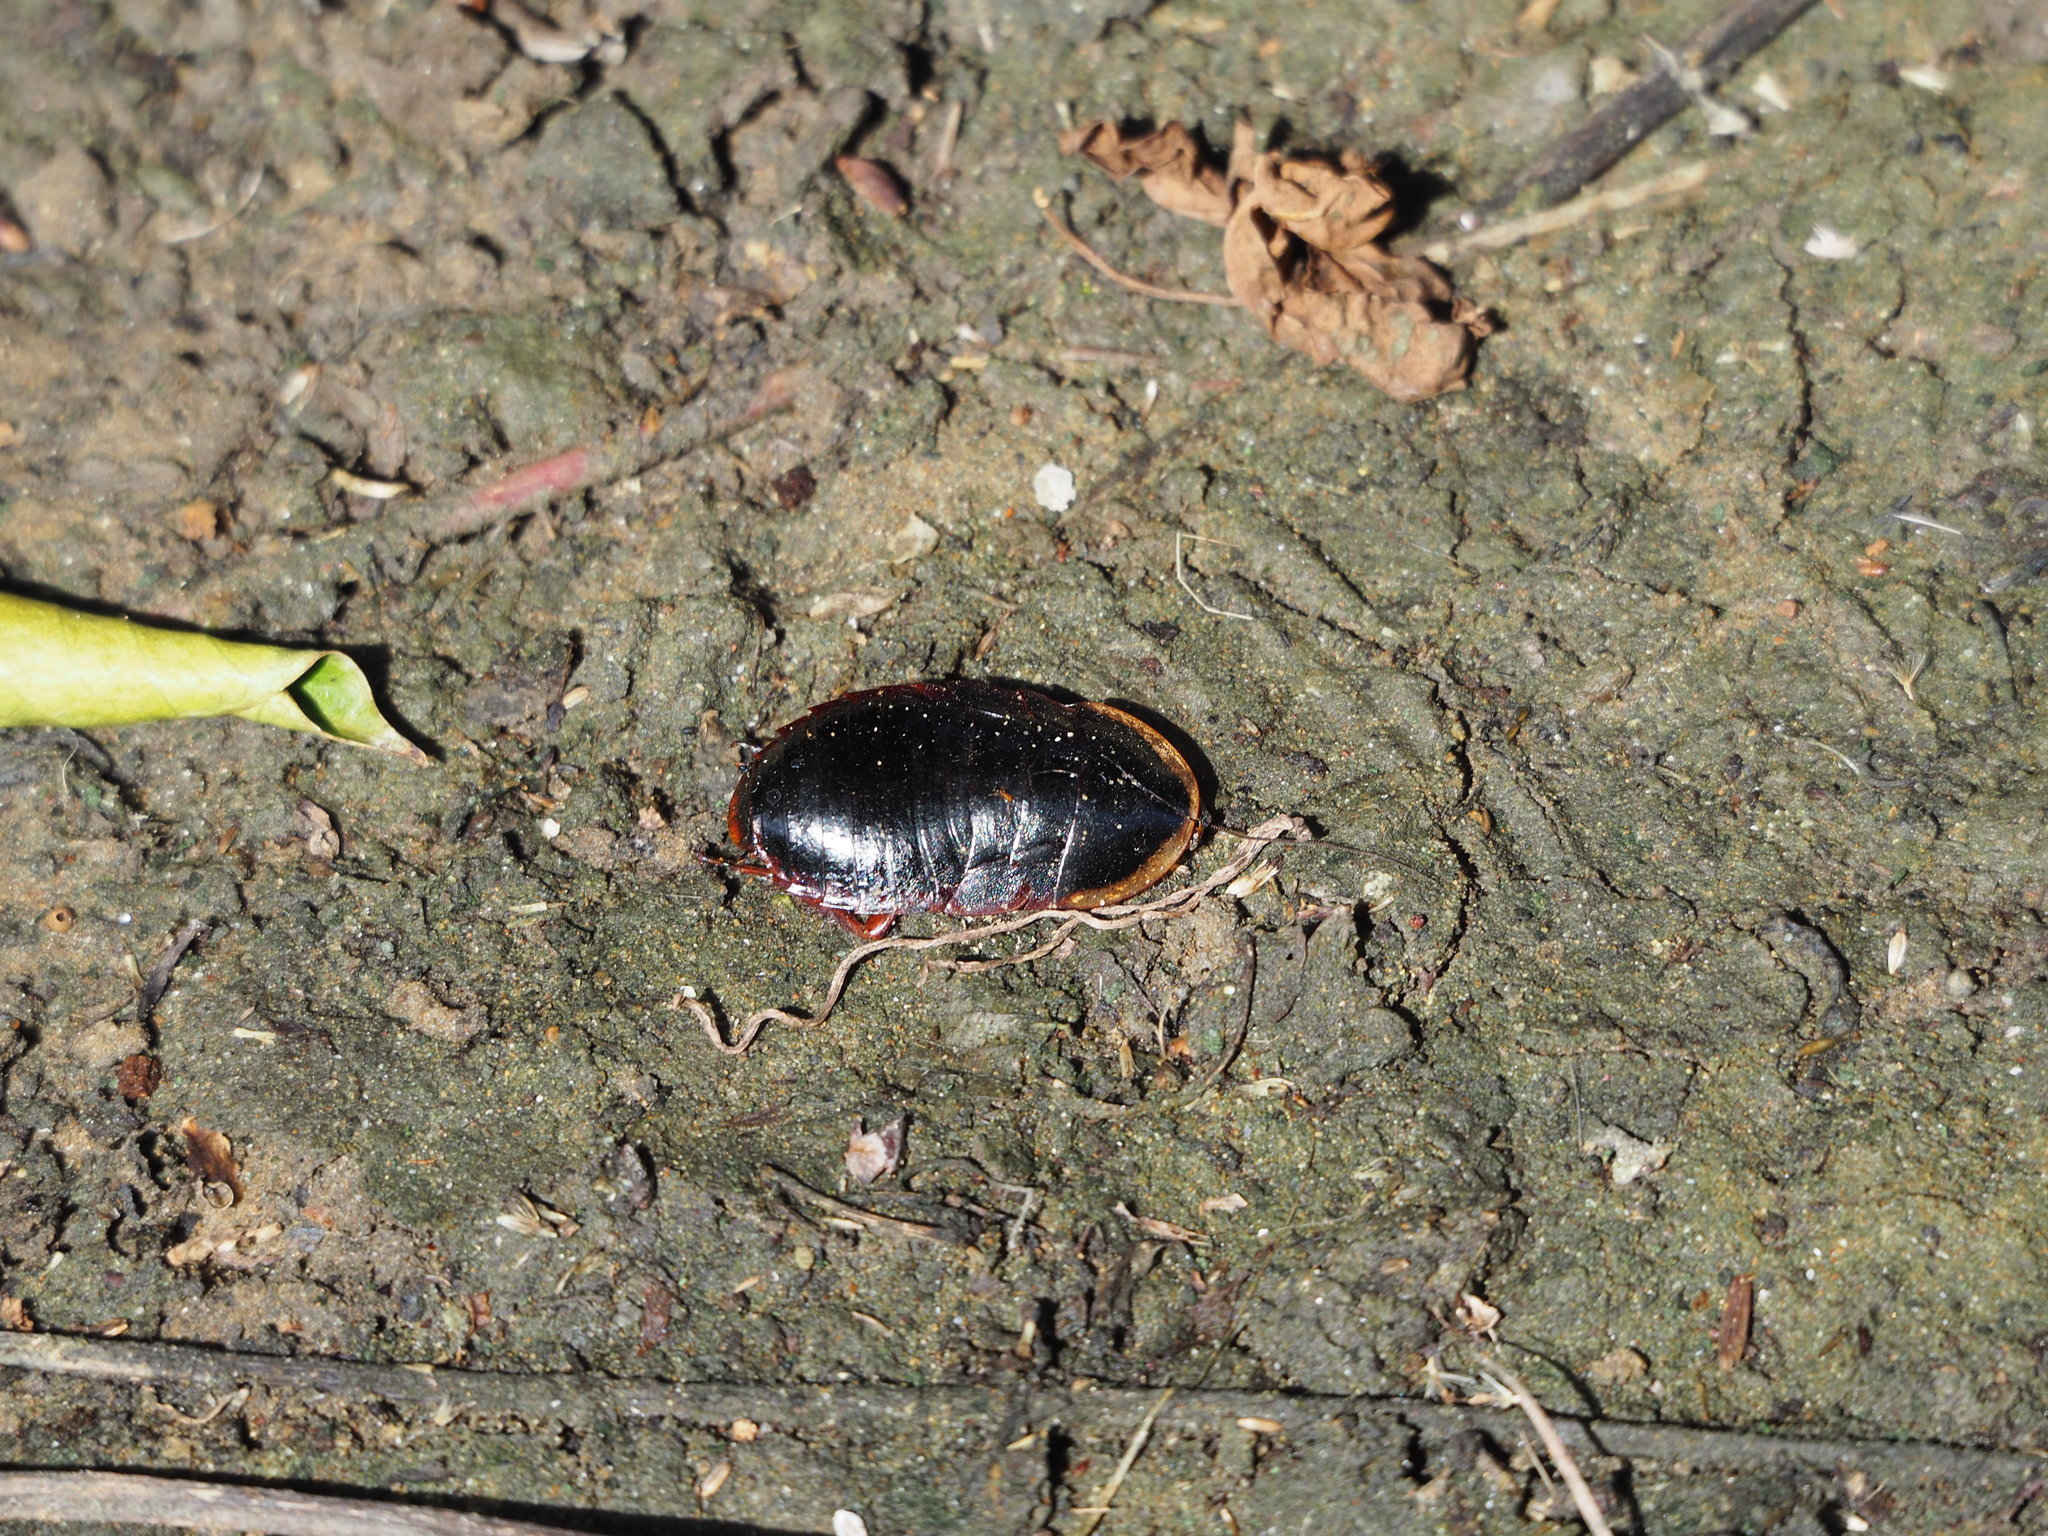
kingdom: Animalia
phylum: Arthropoda
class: Insecta
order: Blattodea
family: Blaberidae
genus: Opisthoplatia
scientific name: Opisthoplatia orientalis
